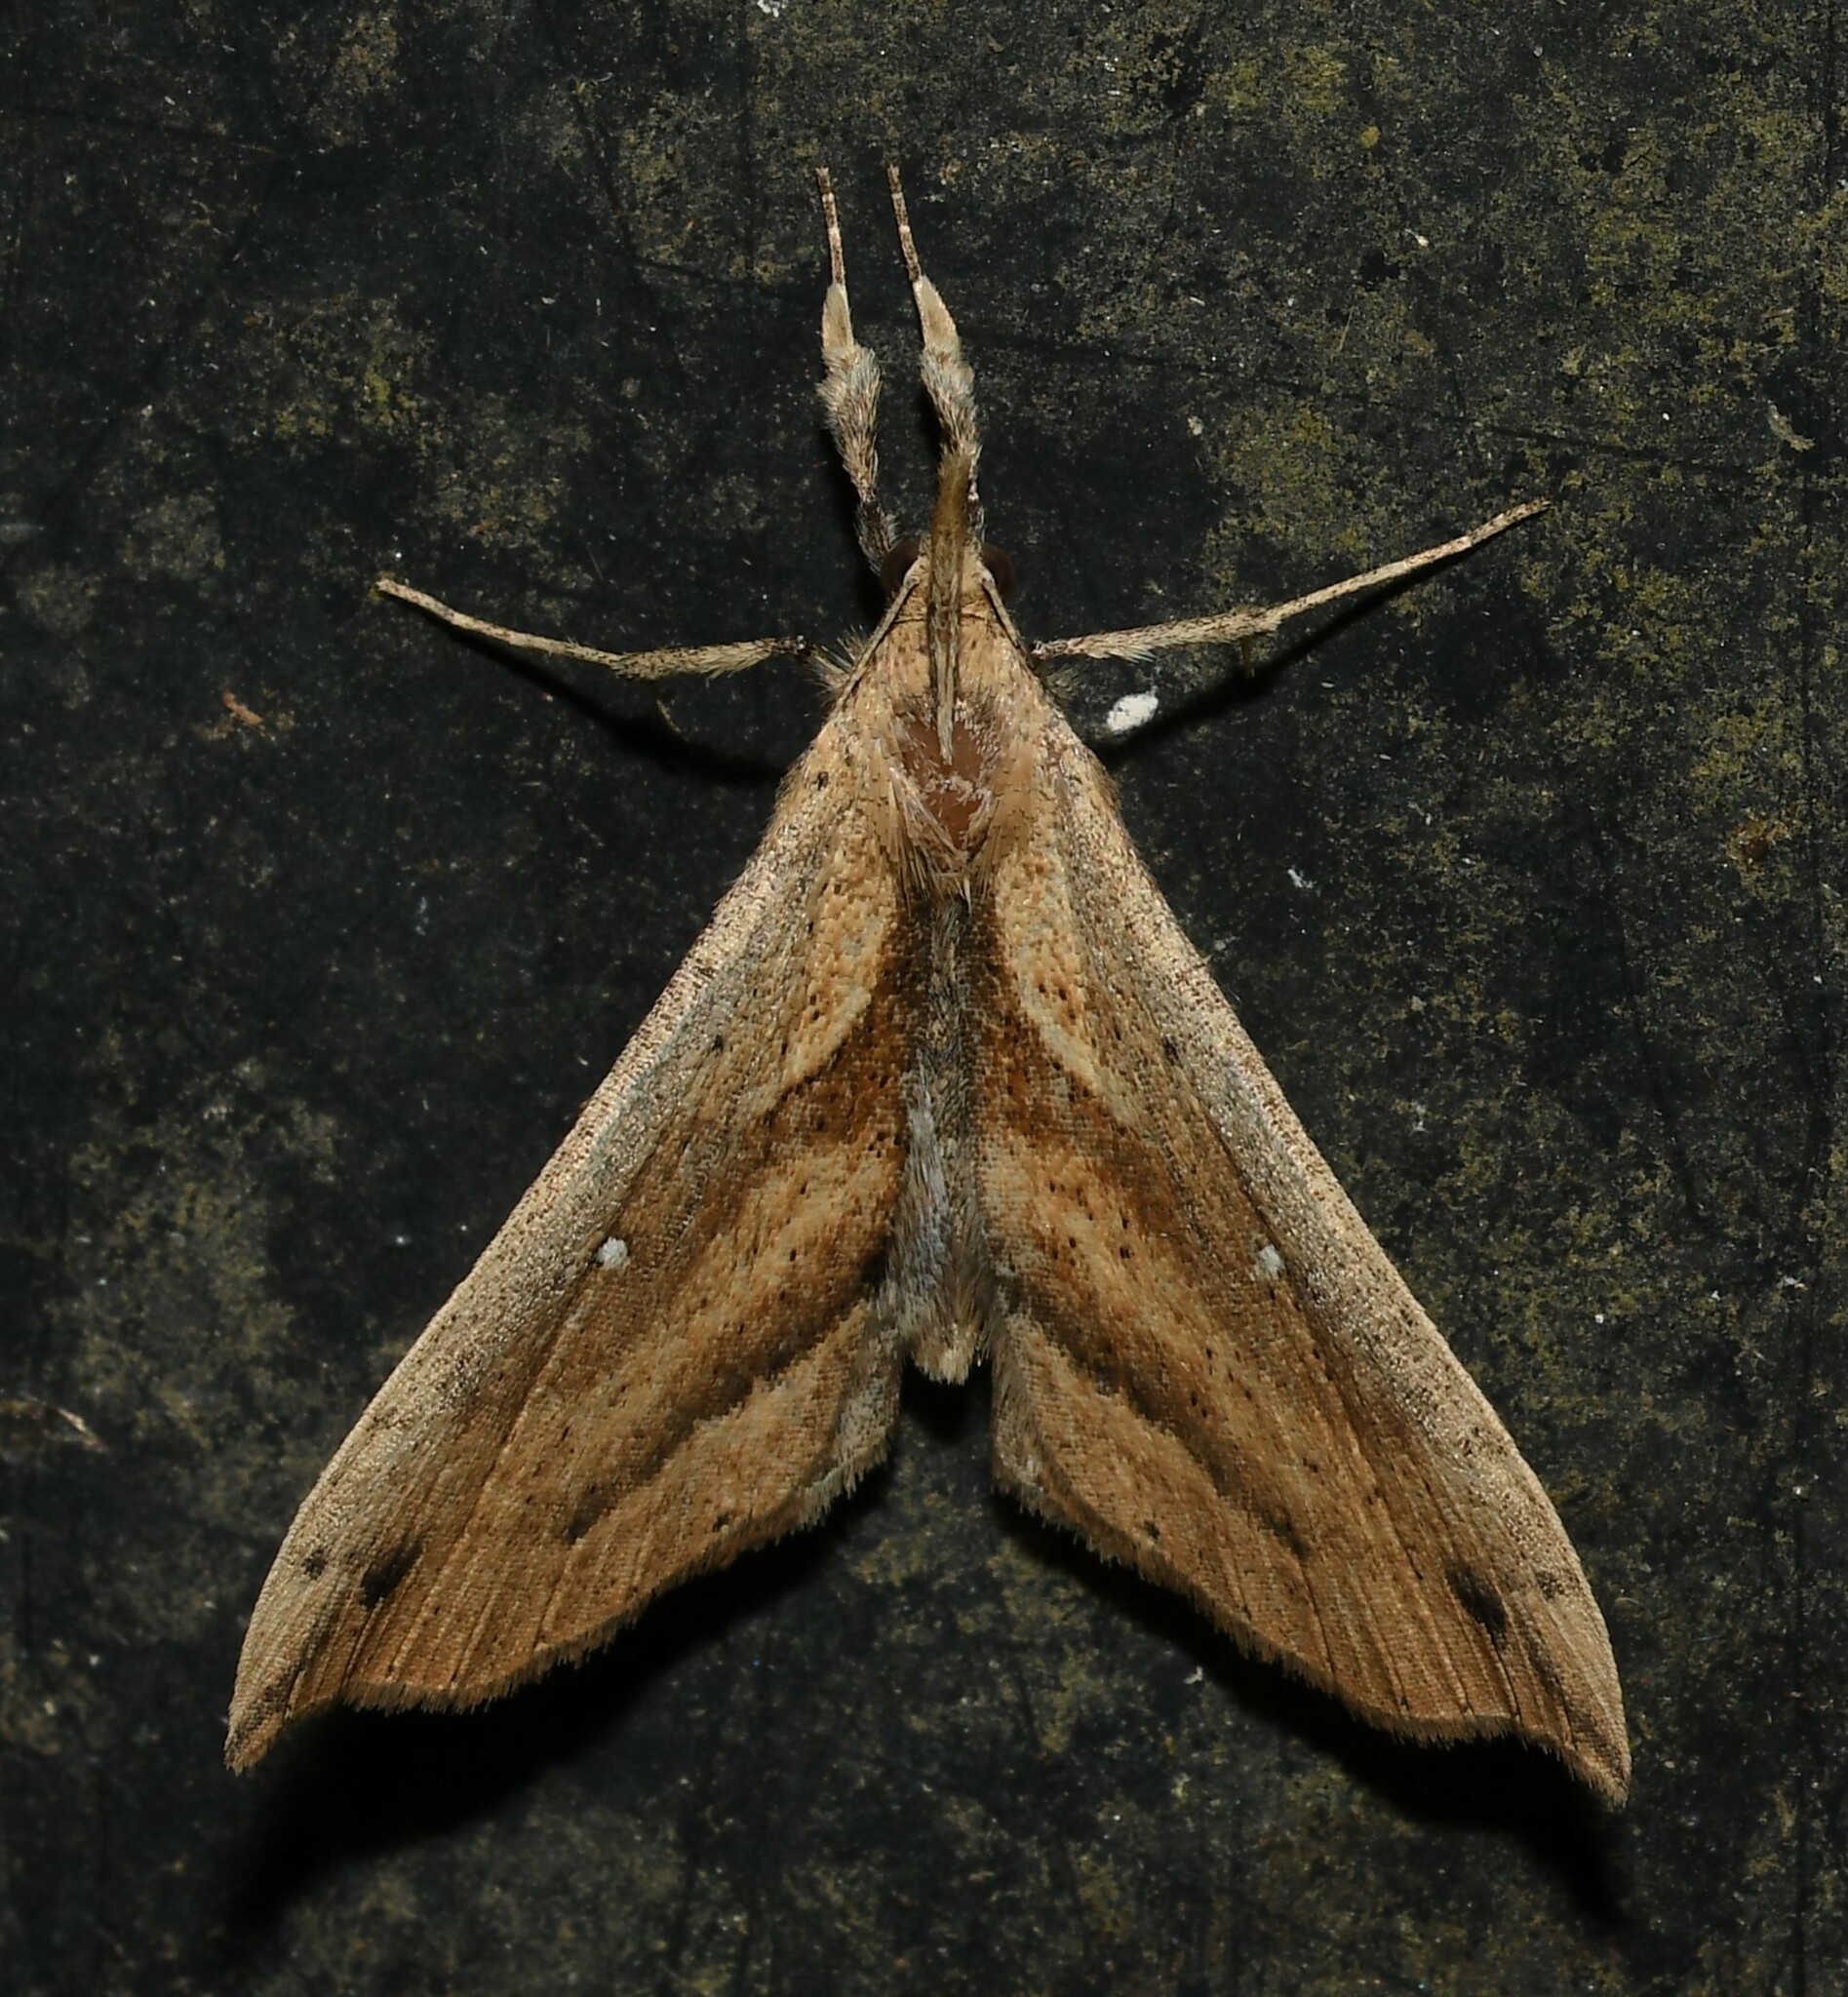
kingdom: Animalia
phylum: Arthropoda
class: Insecta
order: Lepidoptera
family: Erebidae
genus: Dogninades
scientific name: Dogninades jactatalis
